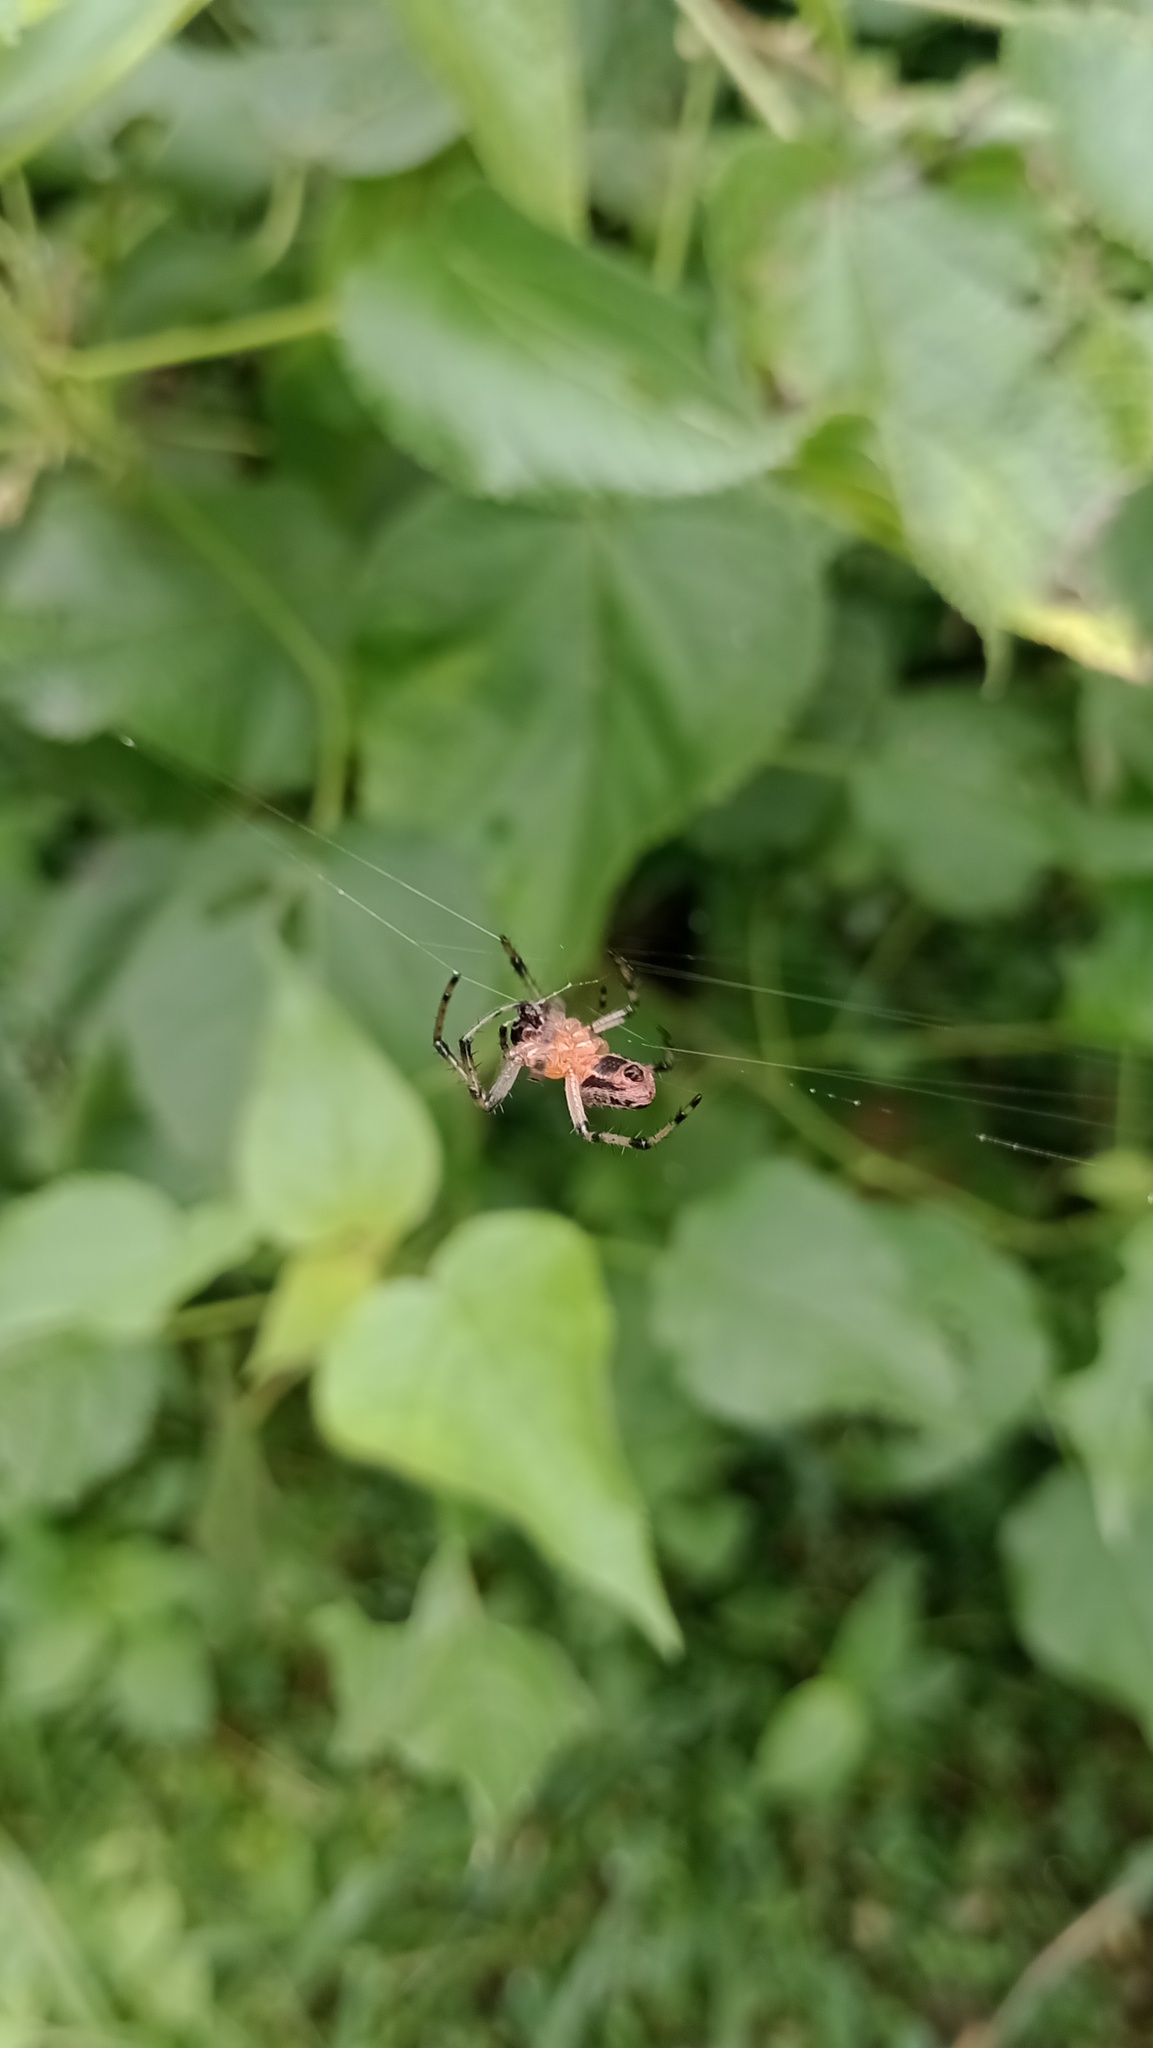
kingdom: Animalia
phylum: Arthropoda
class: Arachnida
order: Araneae
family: Araneidae
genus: Alpaida
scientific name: Alpaida veniliae
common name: Orb weavers
